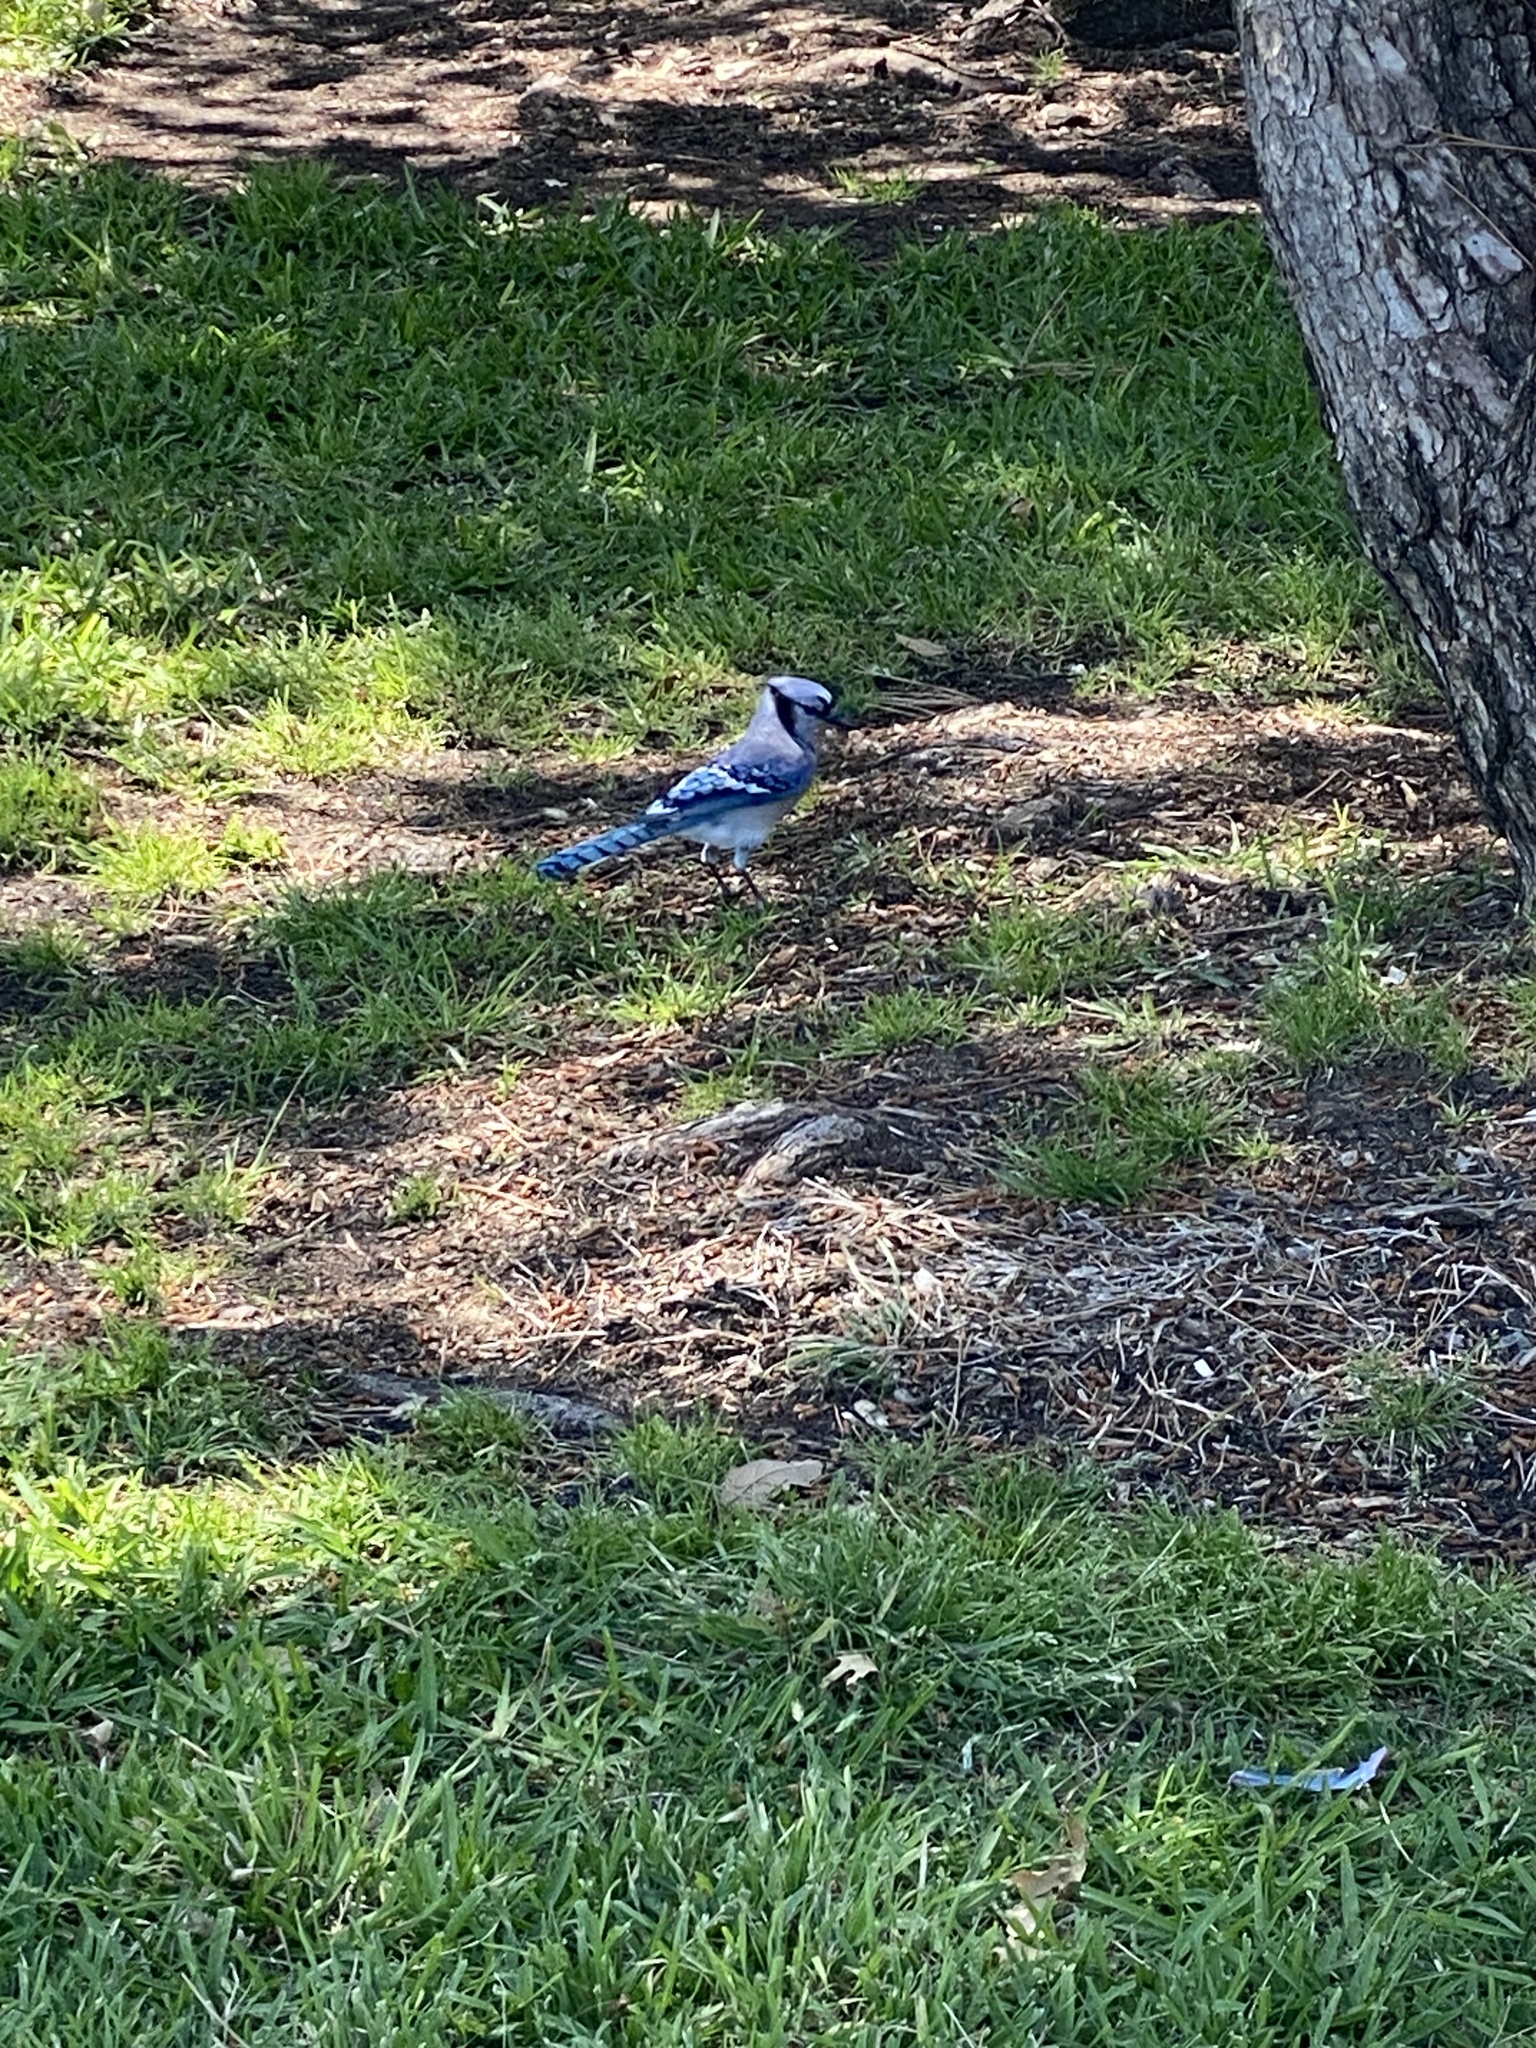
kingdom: Animalia
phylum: Chordata
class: Aves
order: Passeriformes
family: Corvidae
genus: Cyanocitta
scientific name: Cyanocitta cristata
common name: Blue jay
